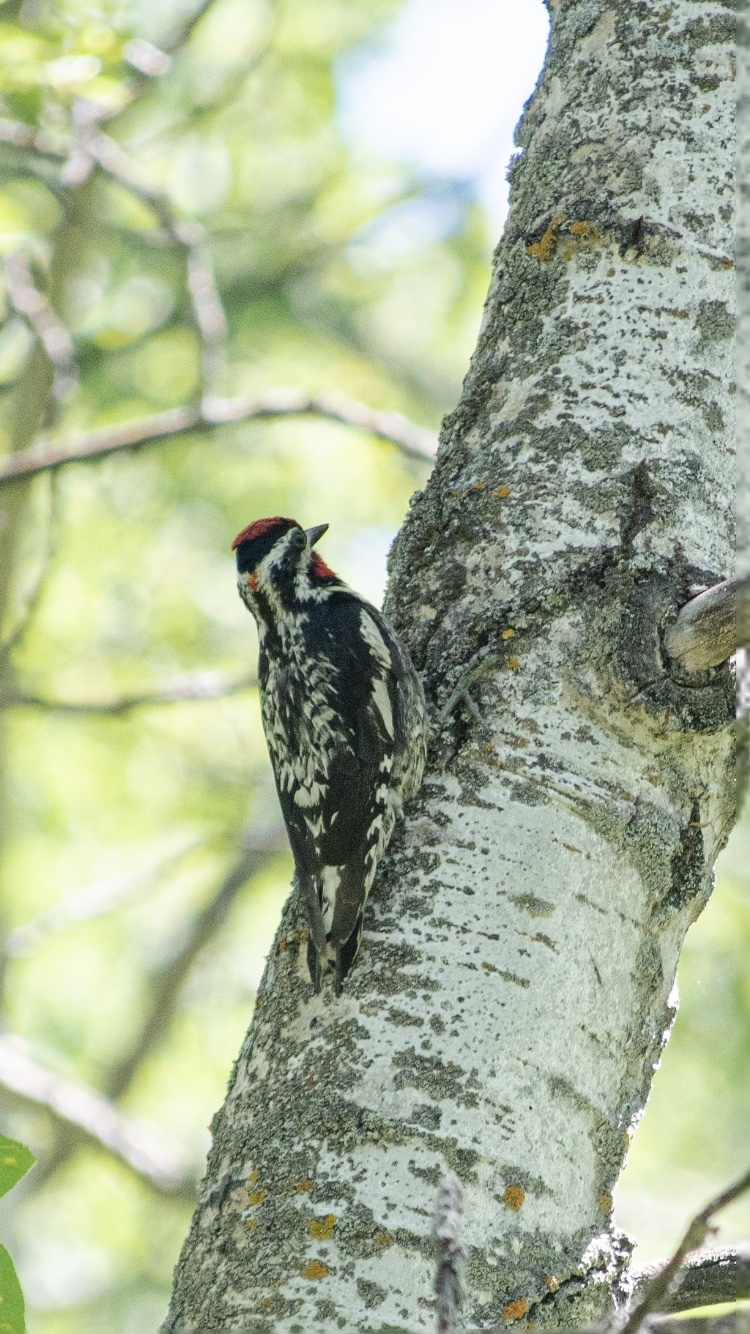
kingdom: Animalia
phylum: Chordata
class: Aves
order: Piciformes
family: Picidae
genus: Sphyrapicus
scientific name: Sphyrapicus nuchalis
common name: Red-naped sapsucker
